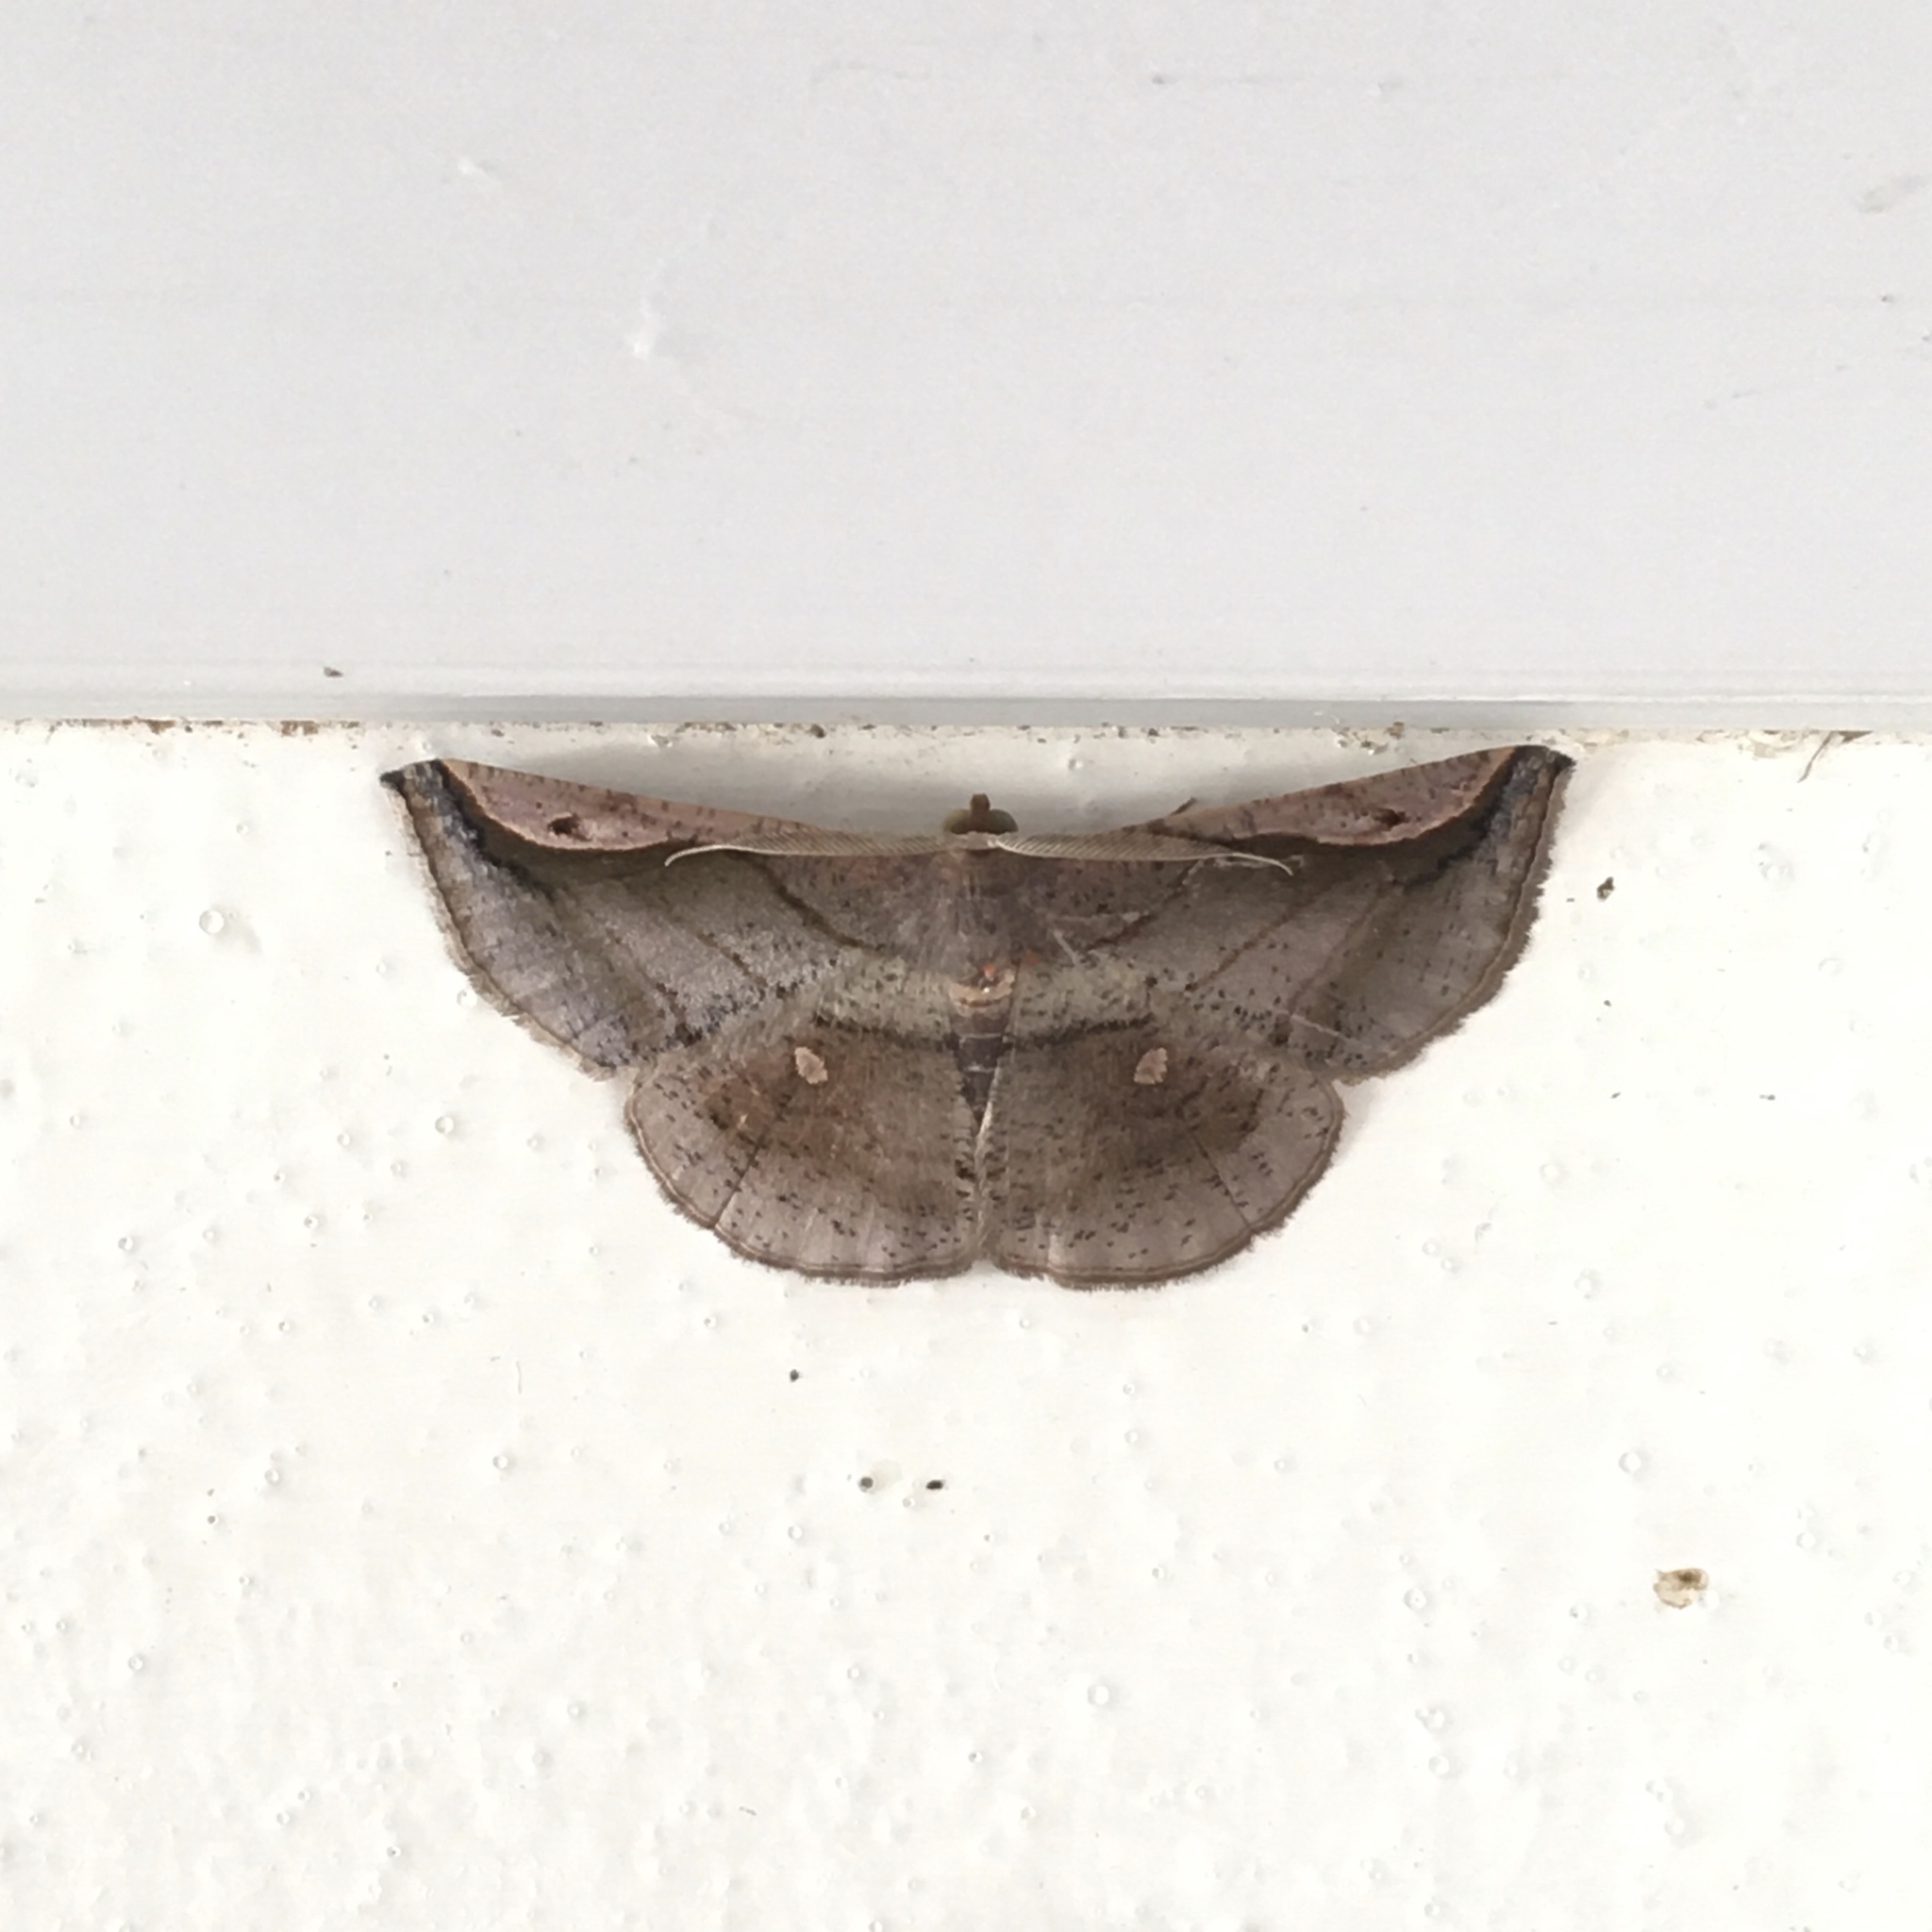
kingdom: Animalia
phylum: Arthropoda
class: Insecta
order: Lepidoptera
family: Geometridae
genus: Bagodares
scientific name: Bagodares
